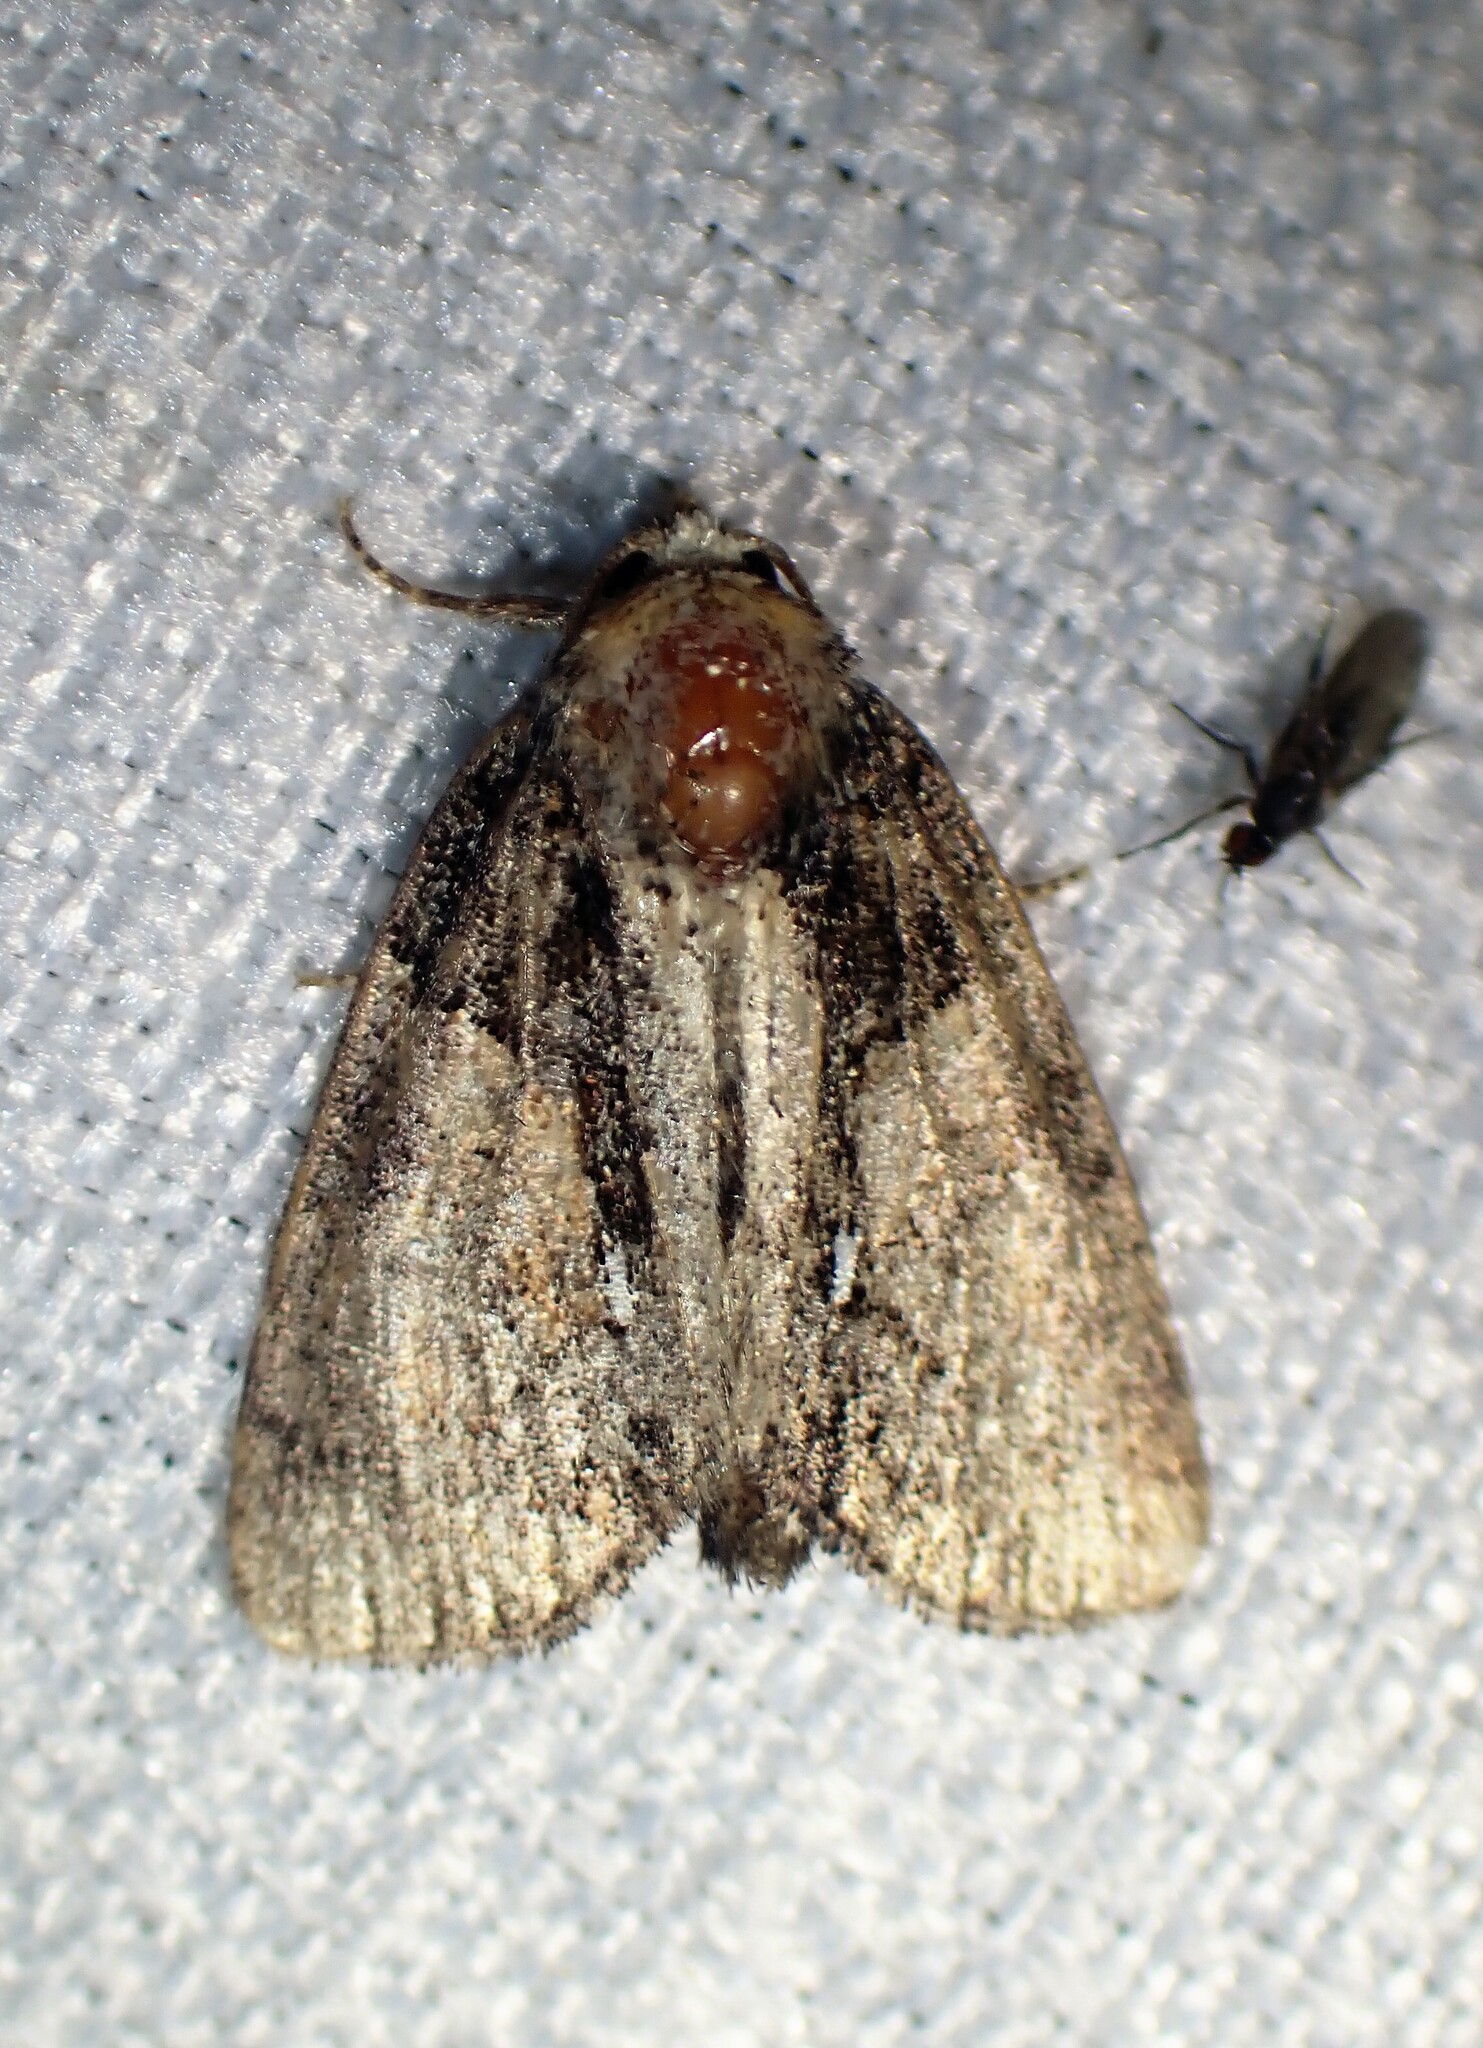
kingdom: Animalia
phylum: Arthropoda
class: Insecta
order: Lepidoptera
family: Noctuidae
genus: Chytonix
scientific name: Chytonix palliatricula
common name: Cloaked marvel
